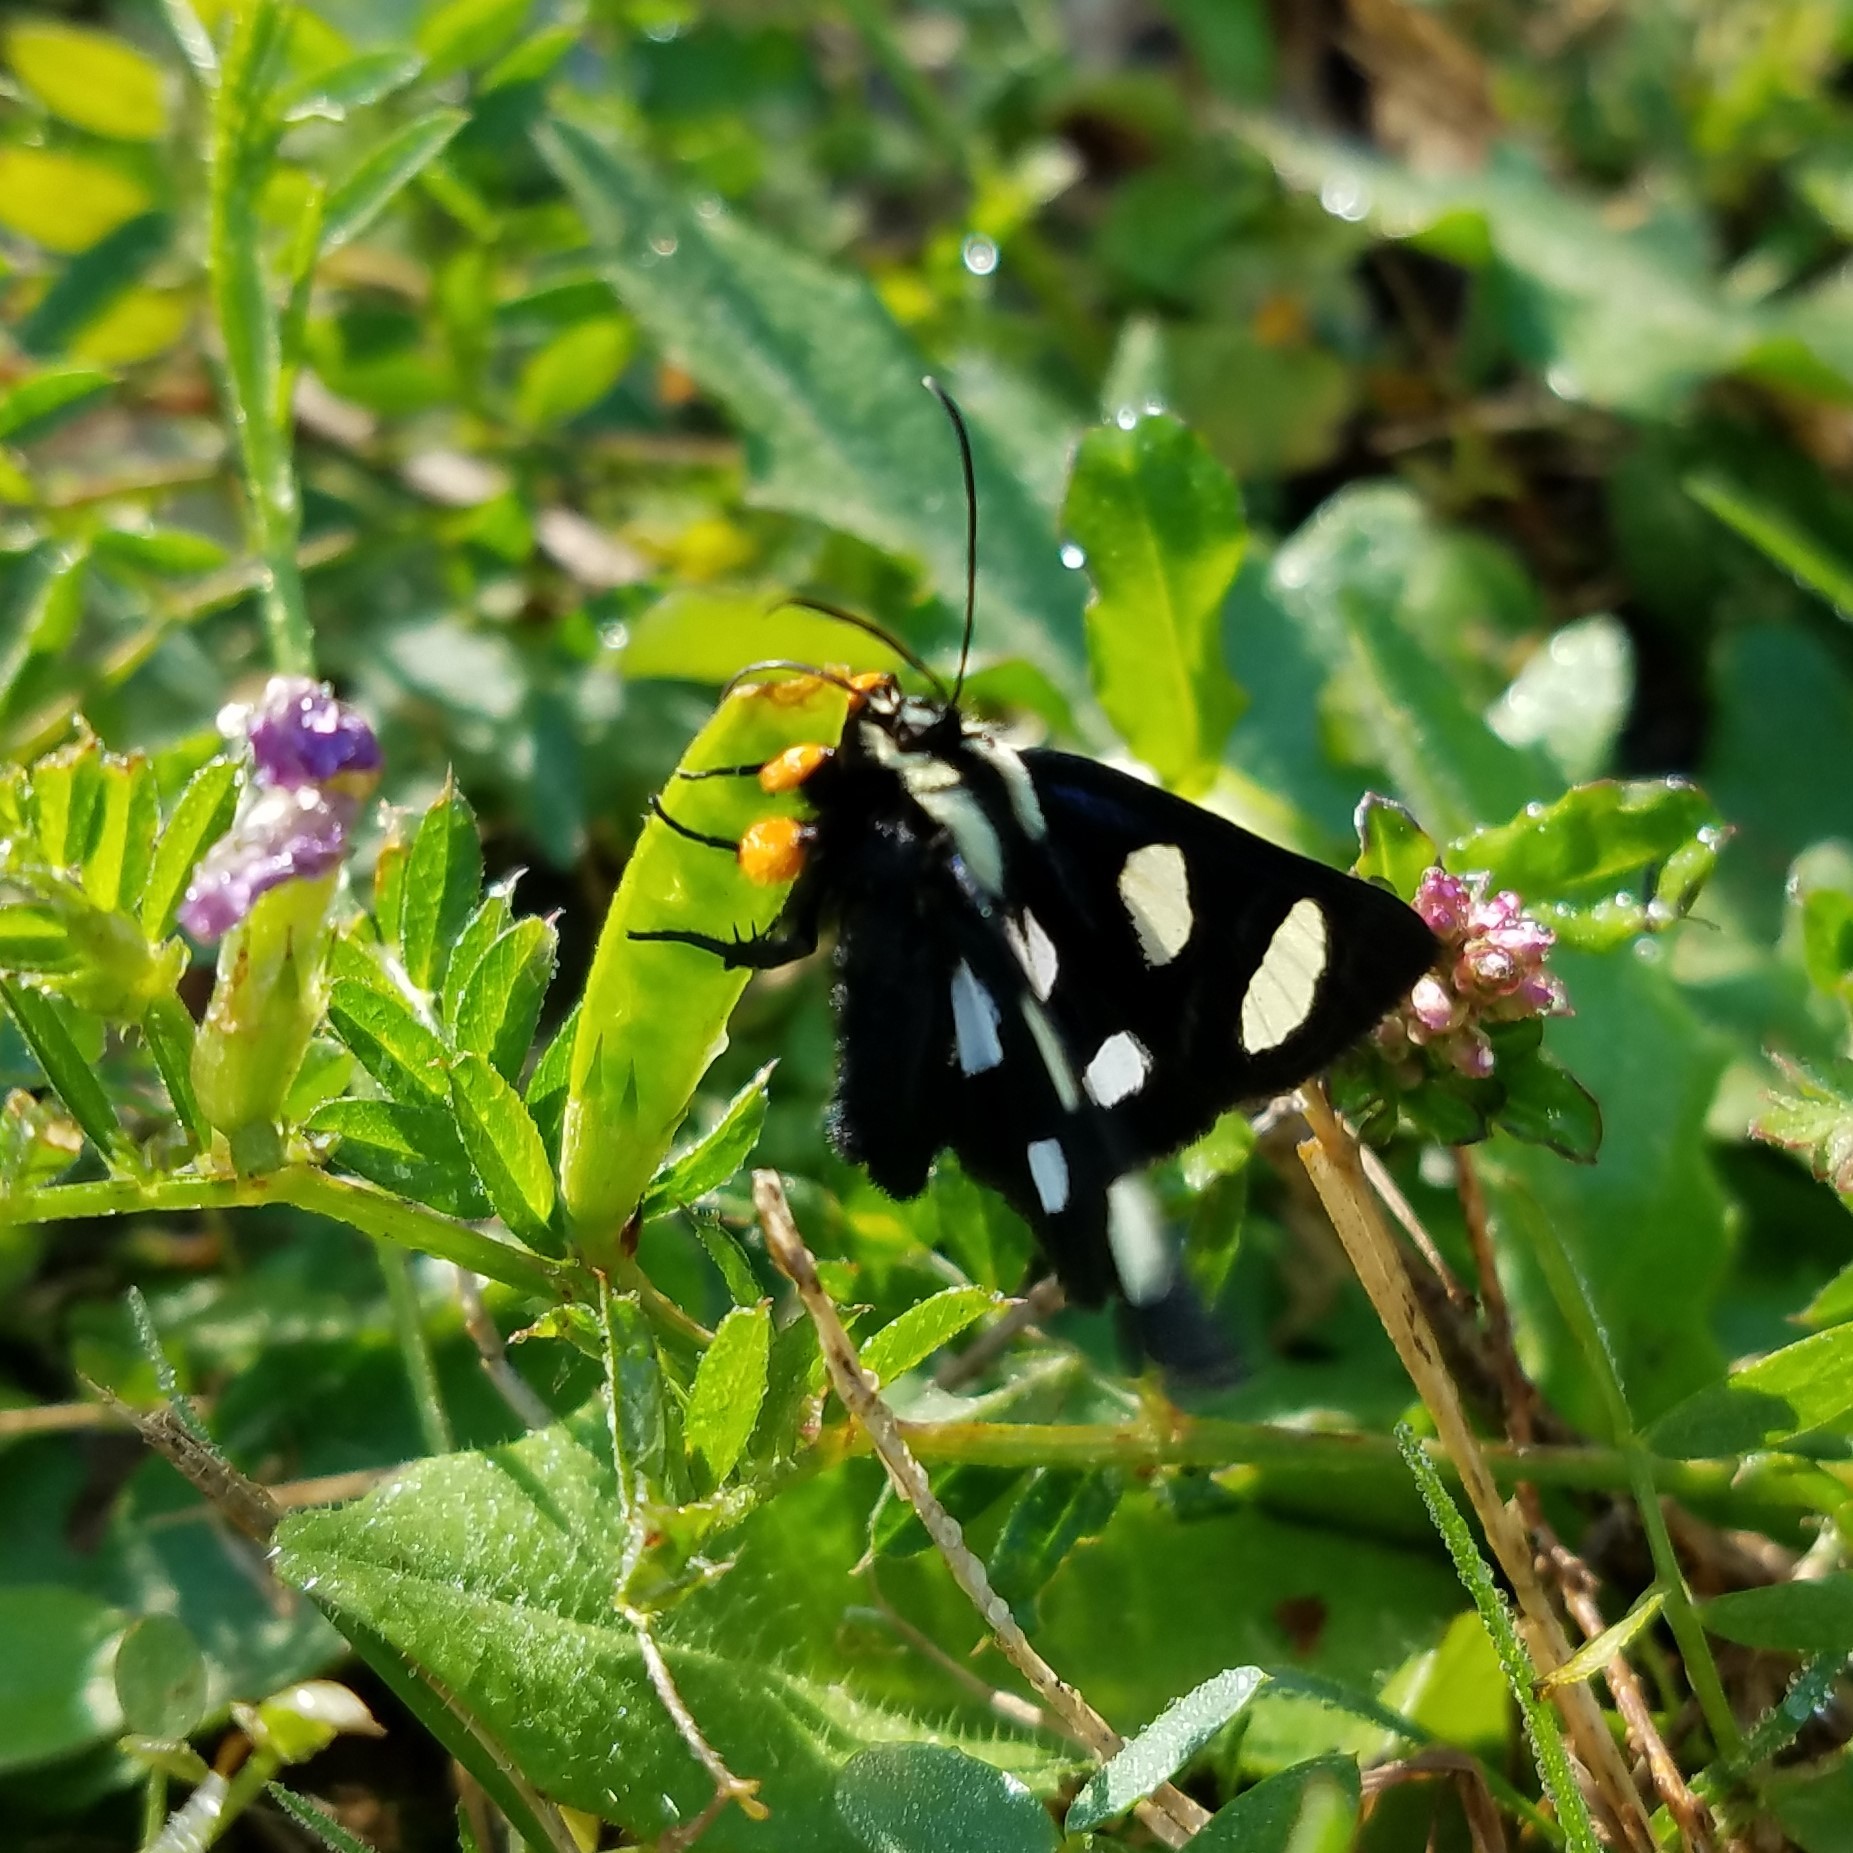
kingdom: Animalia
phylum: Arthropoda
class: Insecta
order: Lepidoptera
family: Noctuidae
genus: Alypia
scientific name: Alypia octomaculata
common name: Eight-spotted forester
